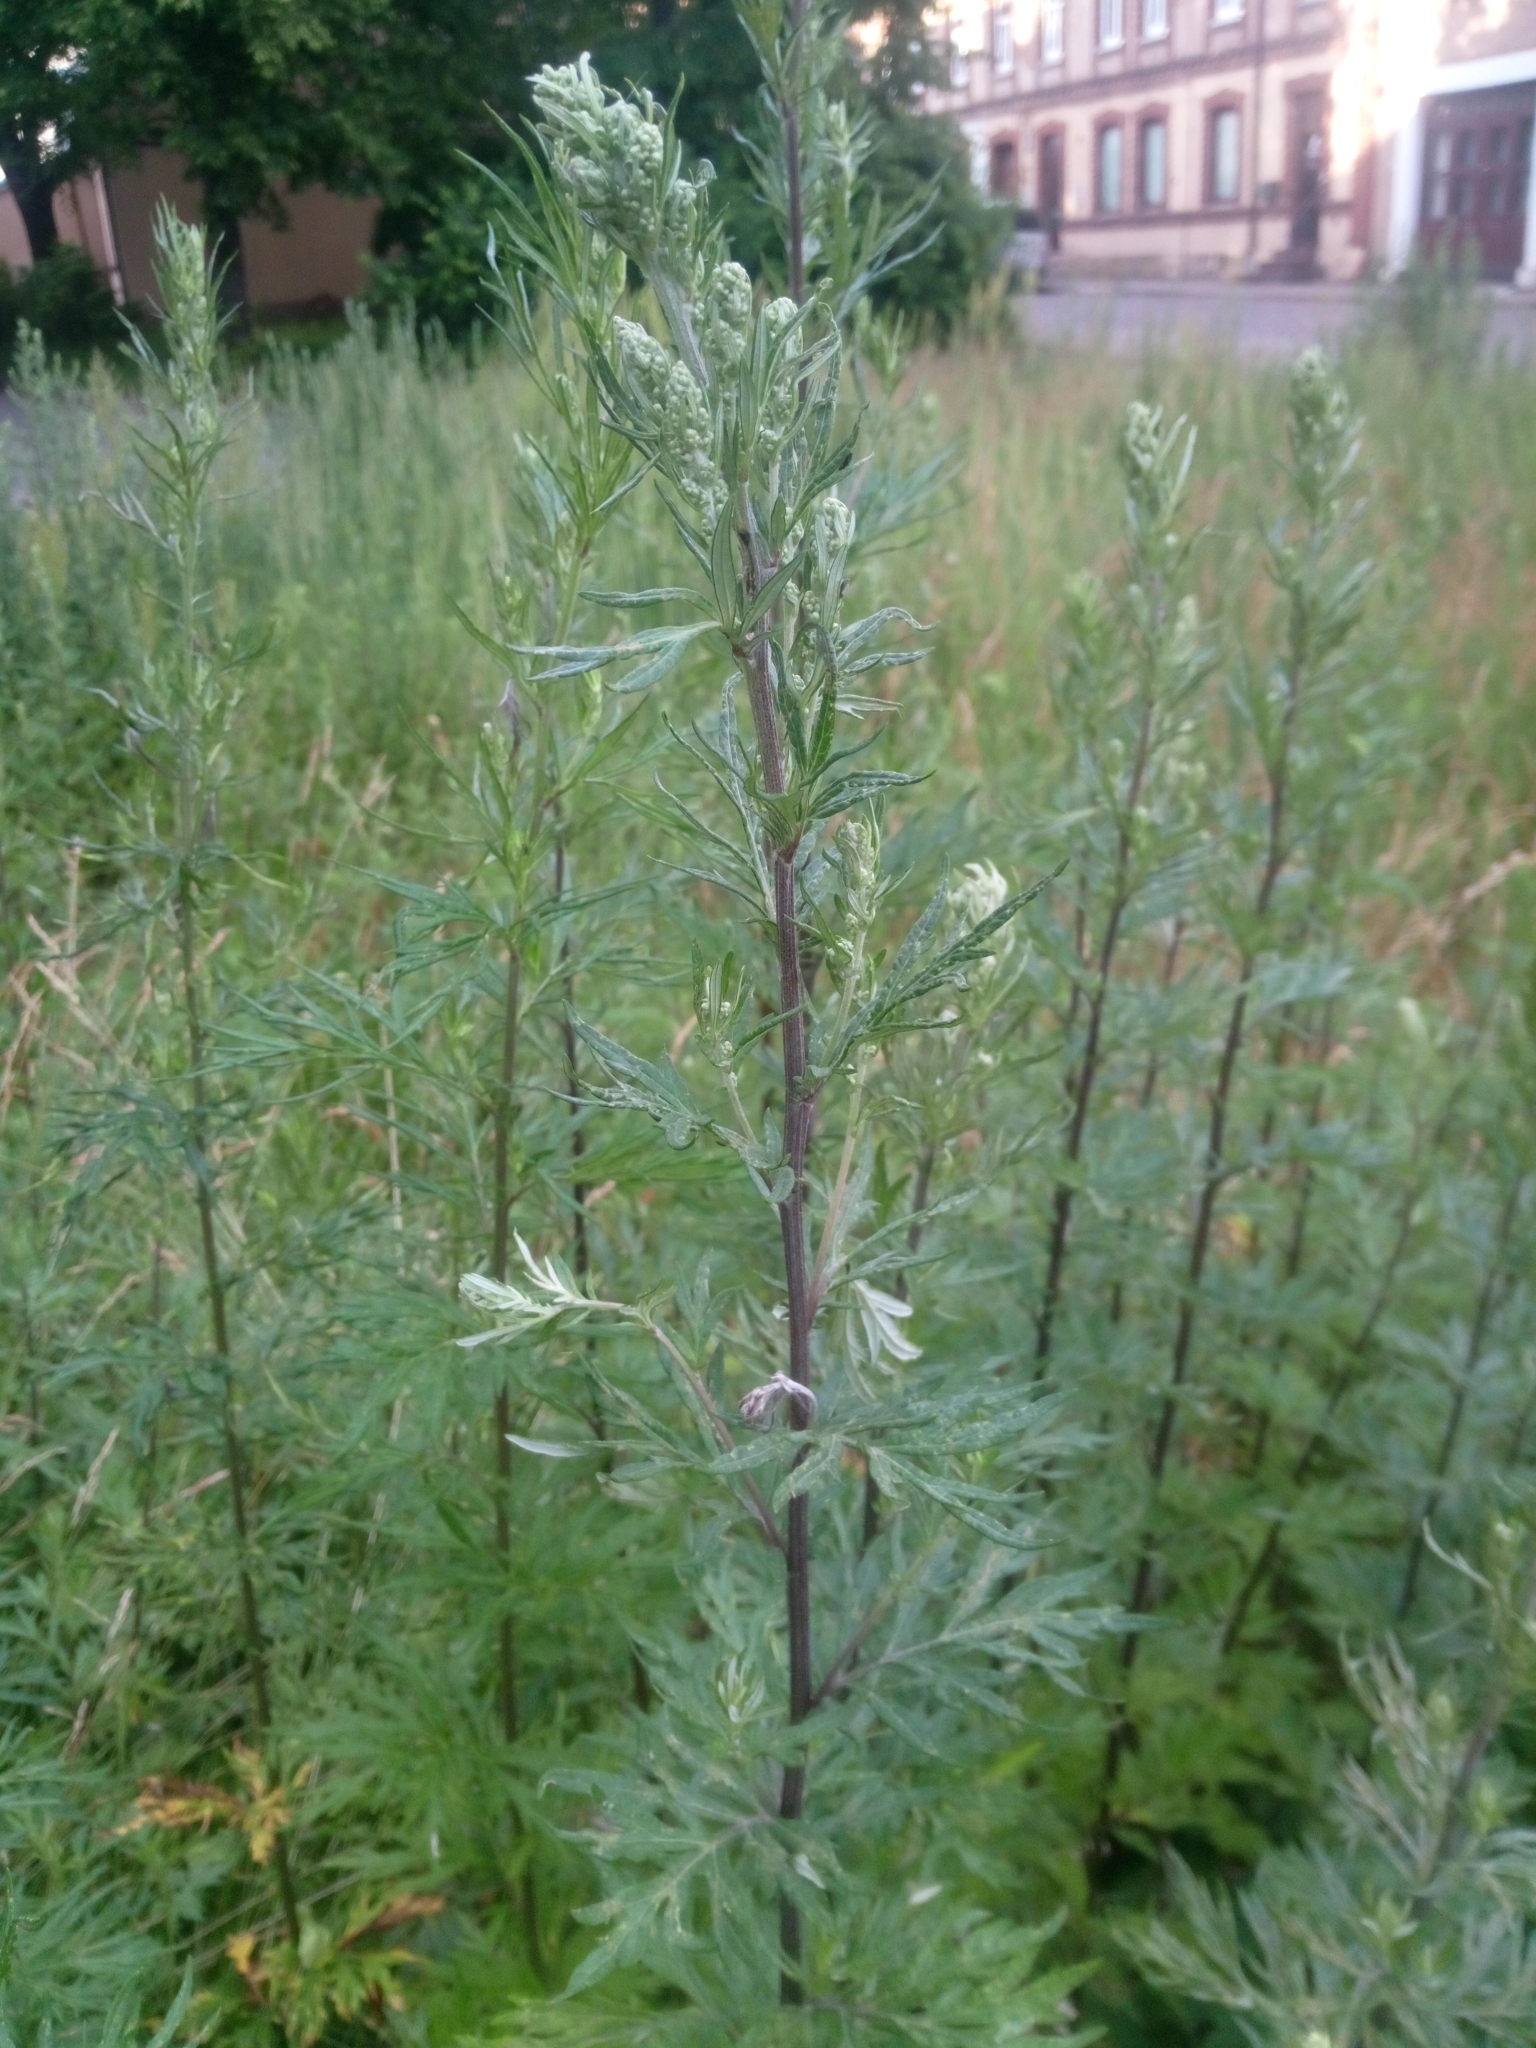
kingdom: Plantae
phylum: Tracheophyta
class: Magnoliopsida
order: Asterales
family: Asteraceae
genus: Artemisia
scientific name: Artemisia vulgaris
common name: Mugwort
